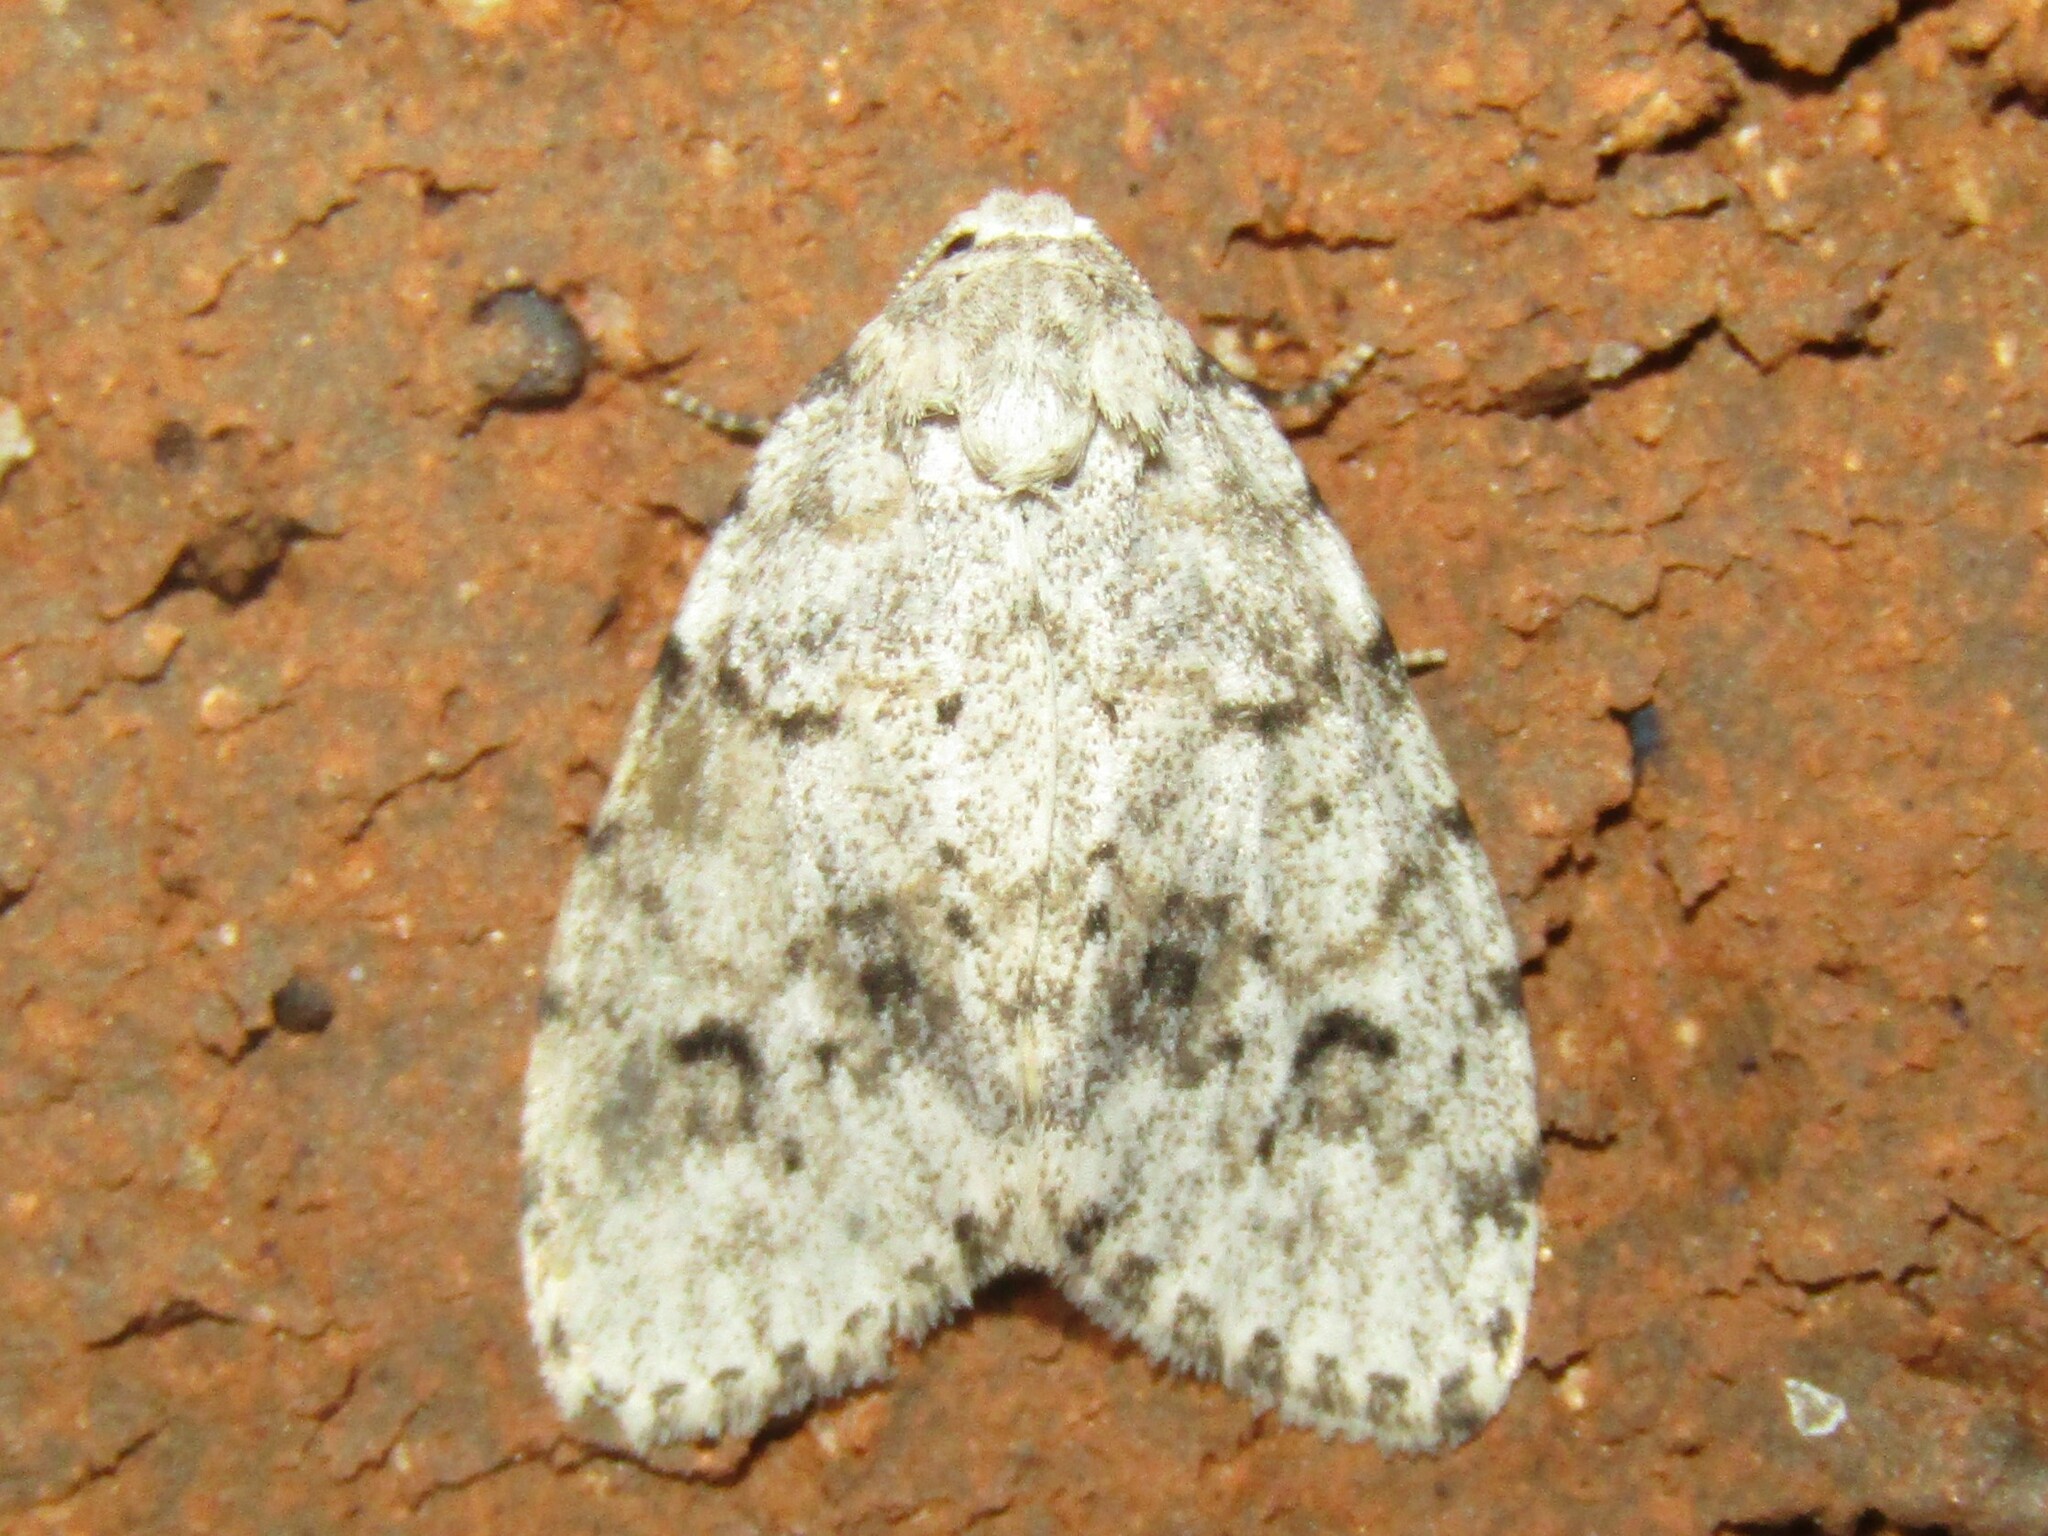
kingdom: Animalia
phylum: Arthropoda
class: Insecta
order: Lepidoptera
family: Erebidae
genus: Clemensia
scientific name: Clemensia albata
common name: Little white lichen moth
